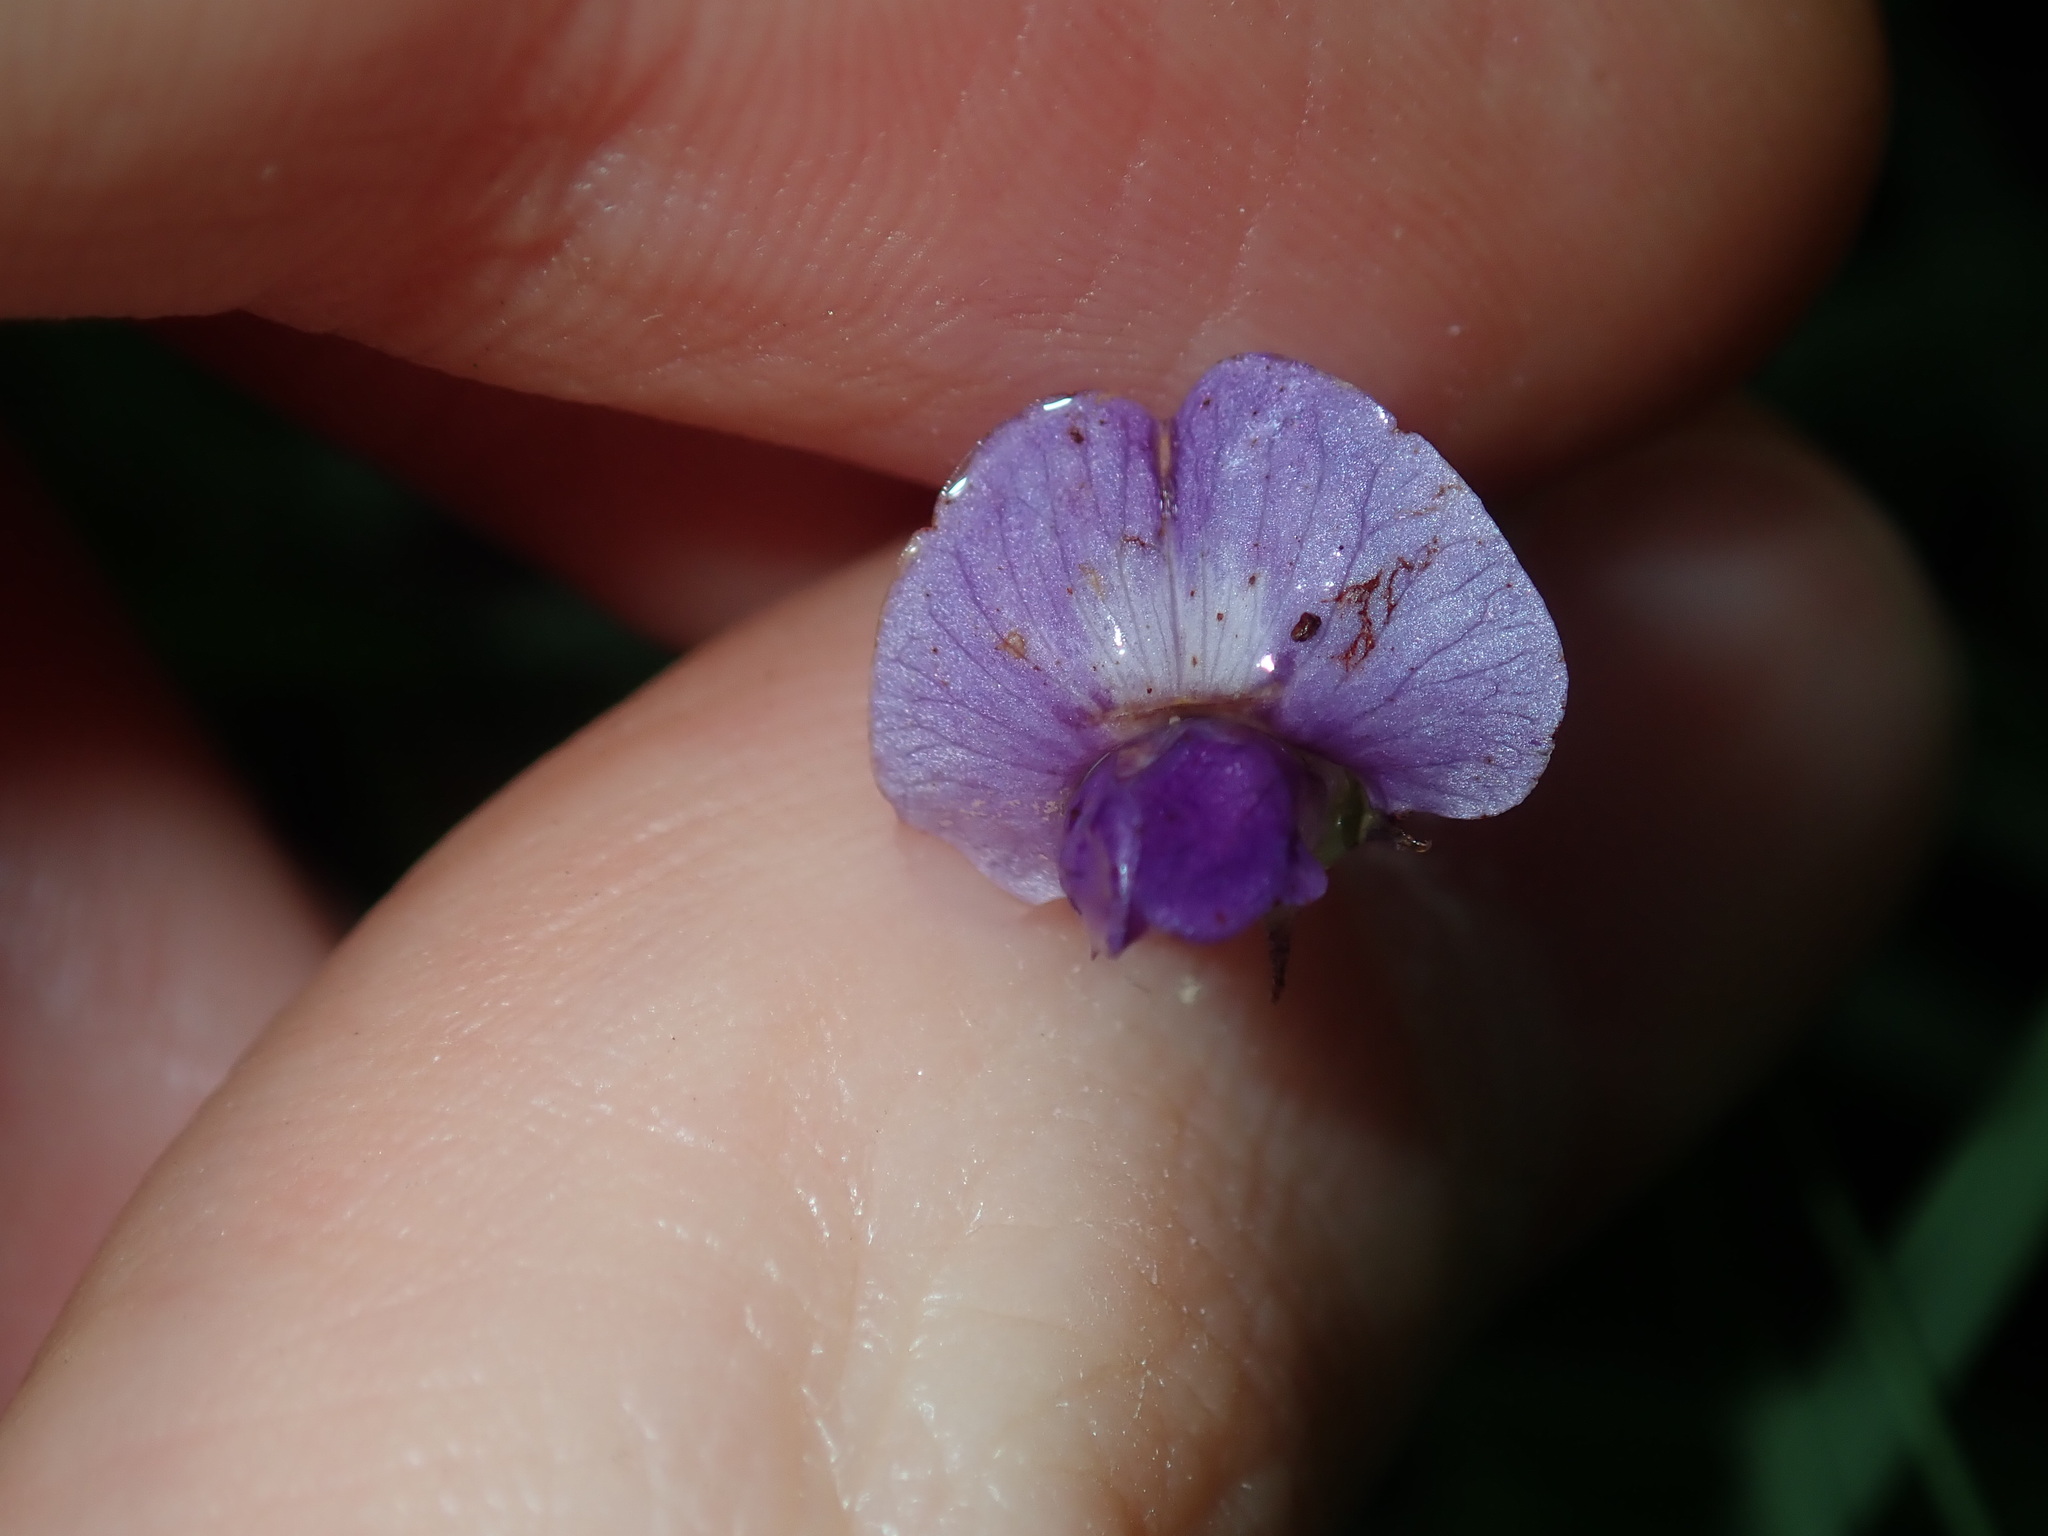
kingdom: Plantae
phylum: Tracheophyta
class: Magnoliopsida
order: Fabales
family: Fabaceae
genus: Glycine
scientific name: Glycine tabacina
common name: Pea glycine
